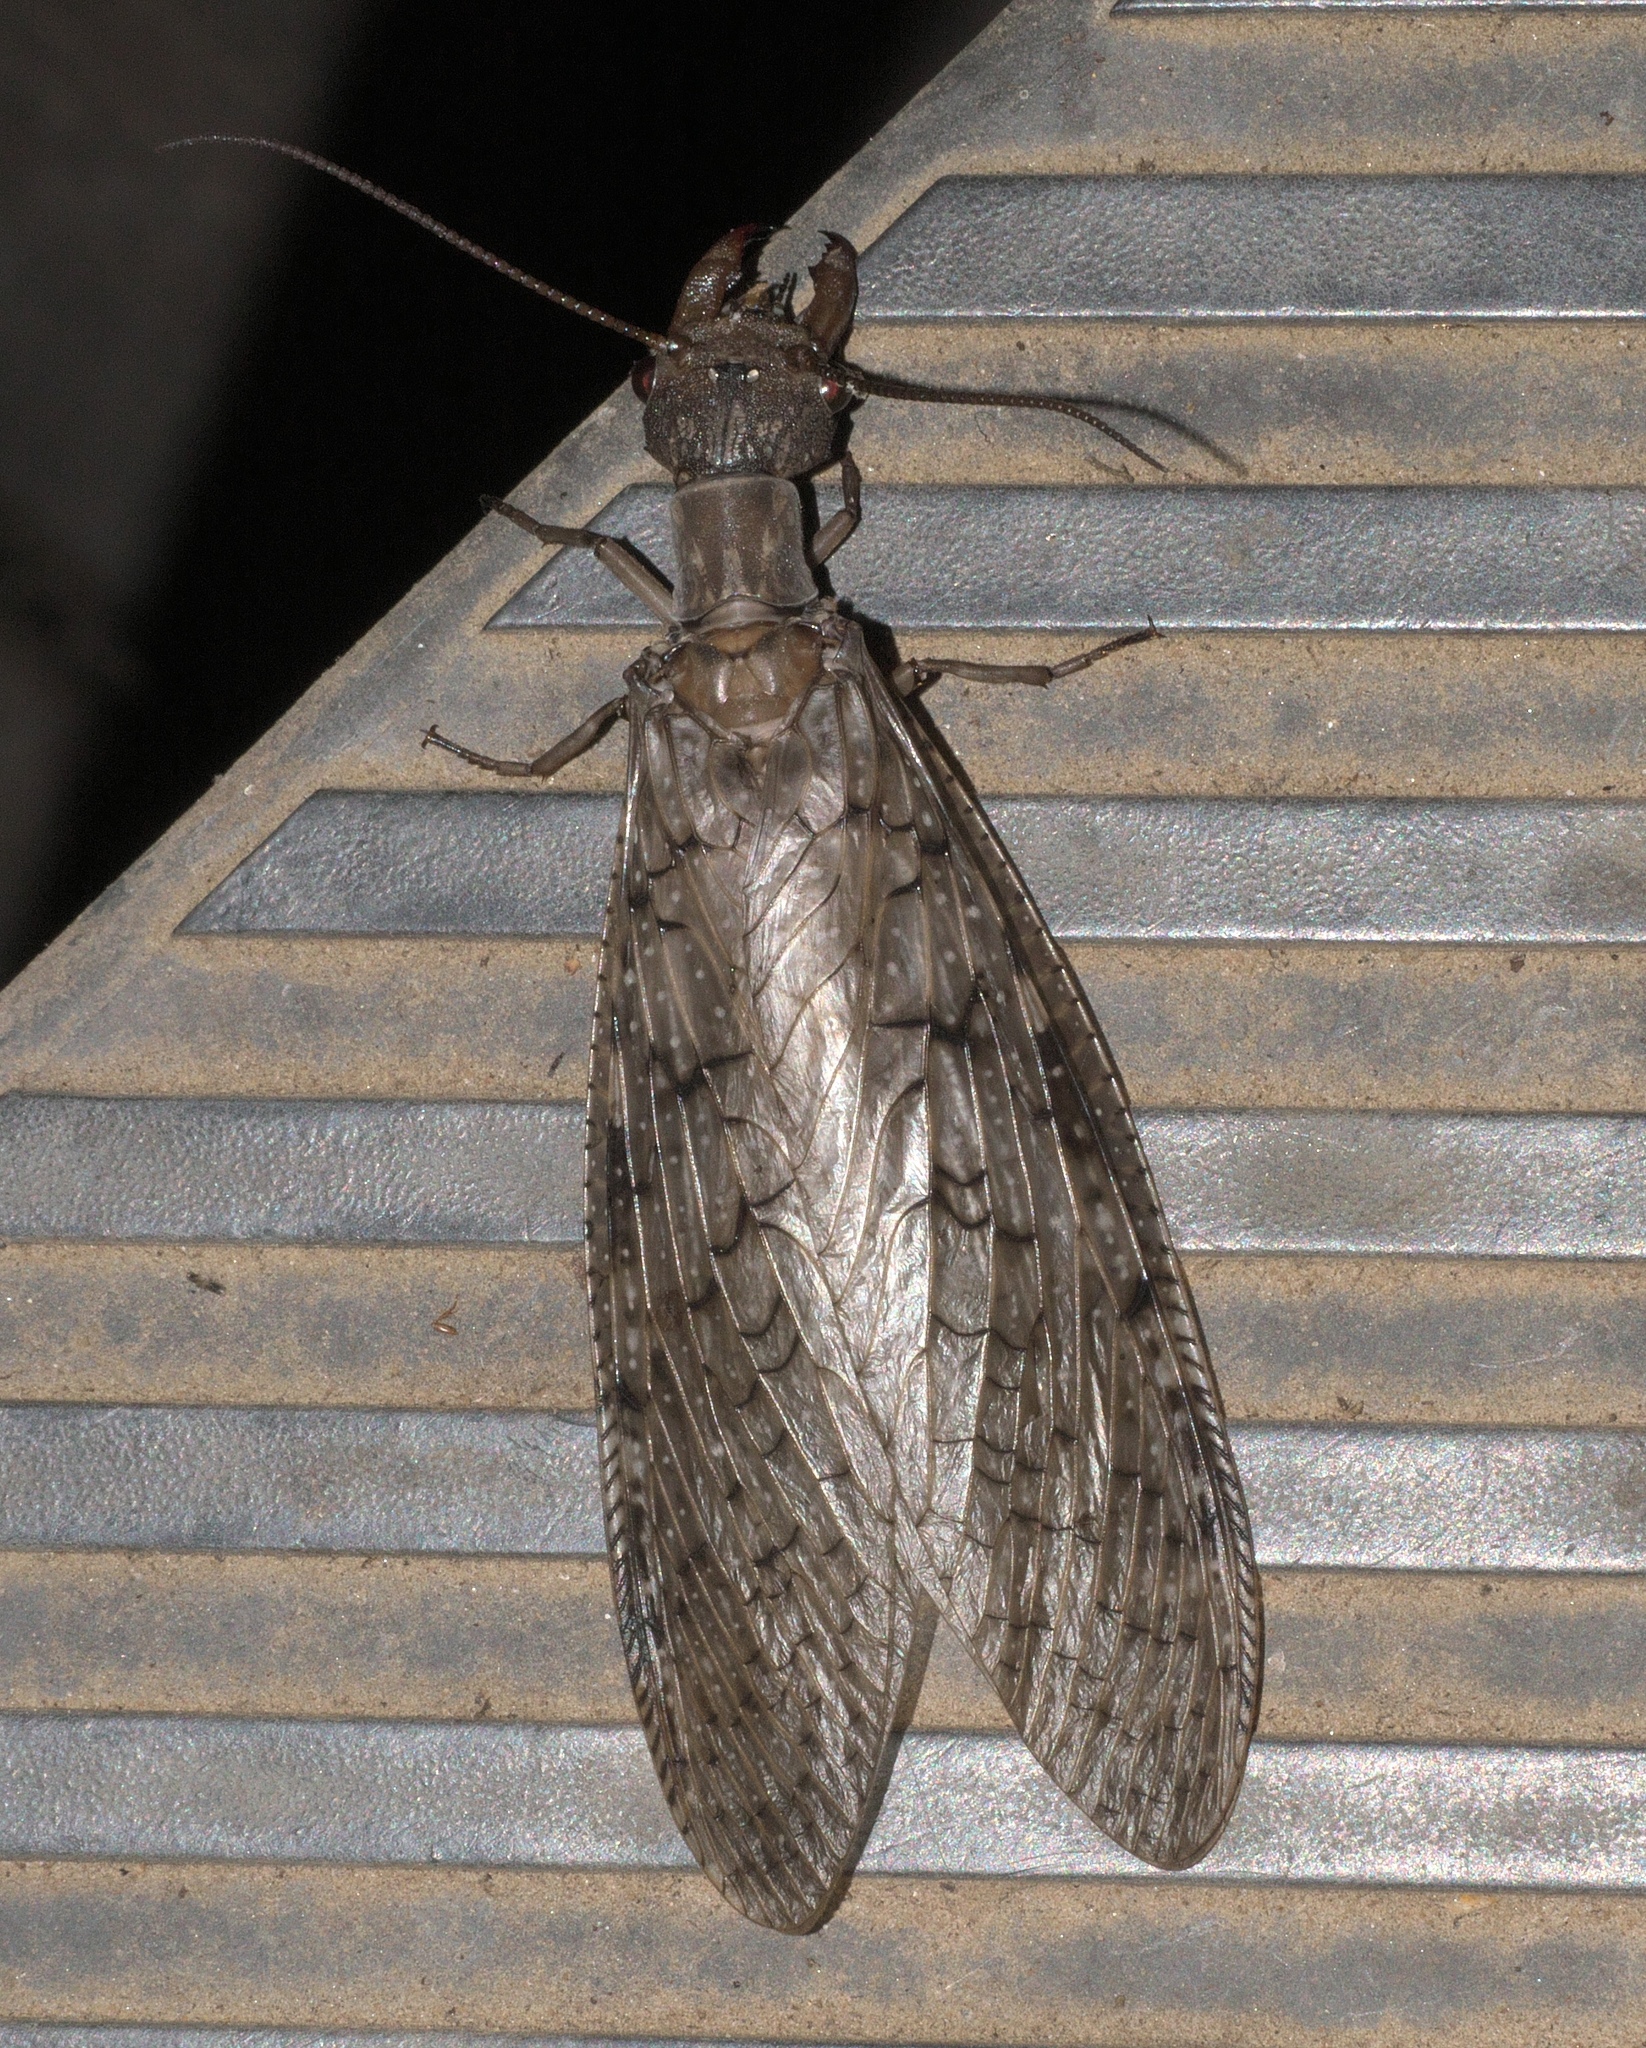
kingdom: Animalia
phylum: Arthropoda
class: Insecta
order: Megaloptera
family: Corydalidae
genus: Corydalus
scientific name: Corydalus cornutus
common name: Dobsonfly
